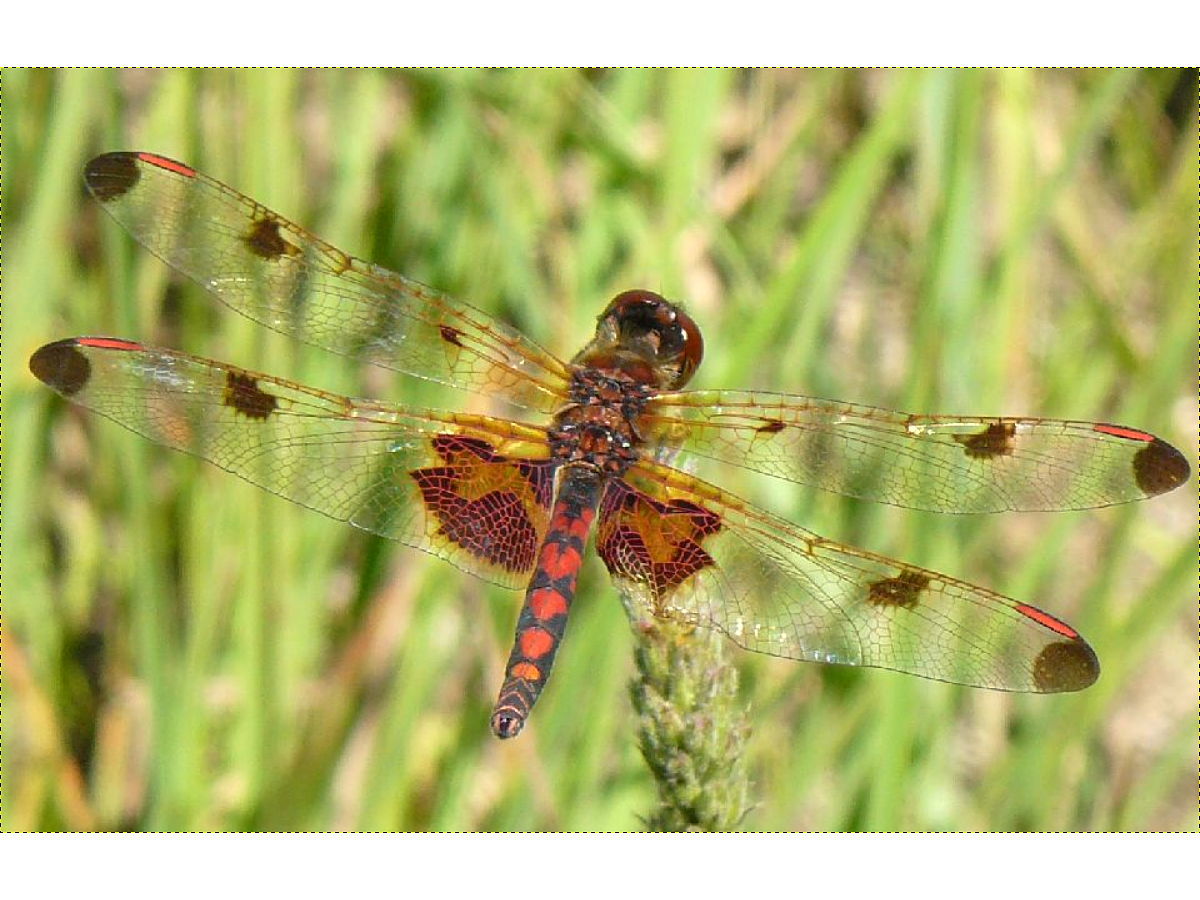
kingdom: Animalia
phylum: Arthropoda
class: Insecta
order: Odonata
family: Libellulidae
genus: Celithemis
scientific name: Celithemis elisa
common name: Calico pennant
